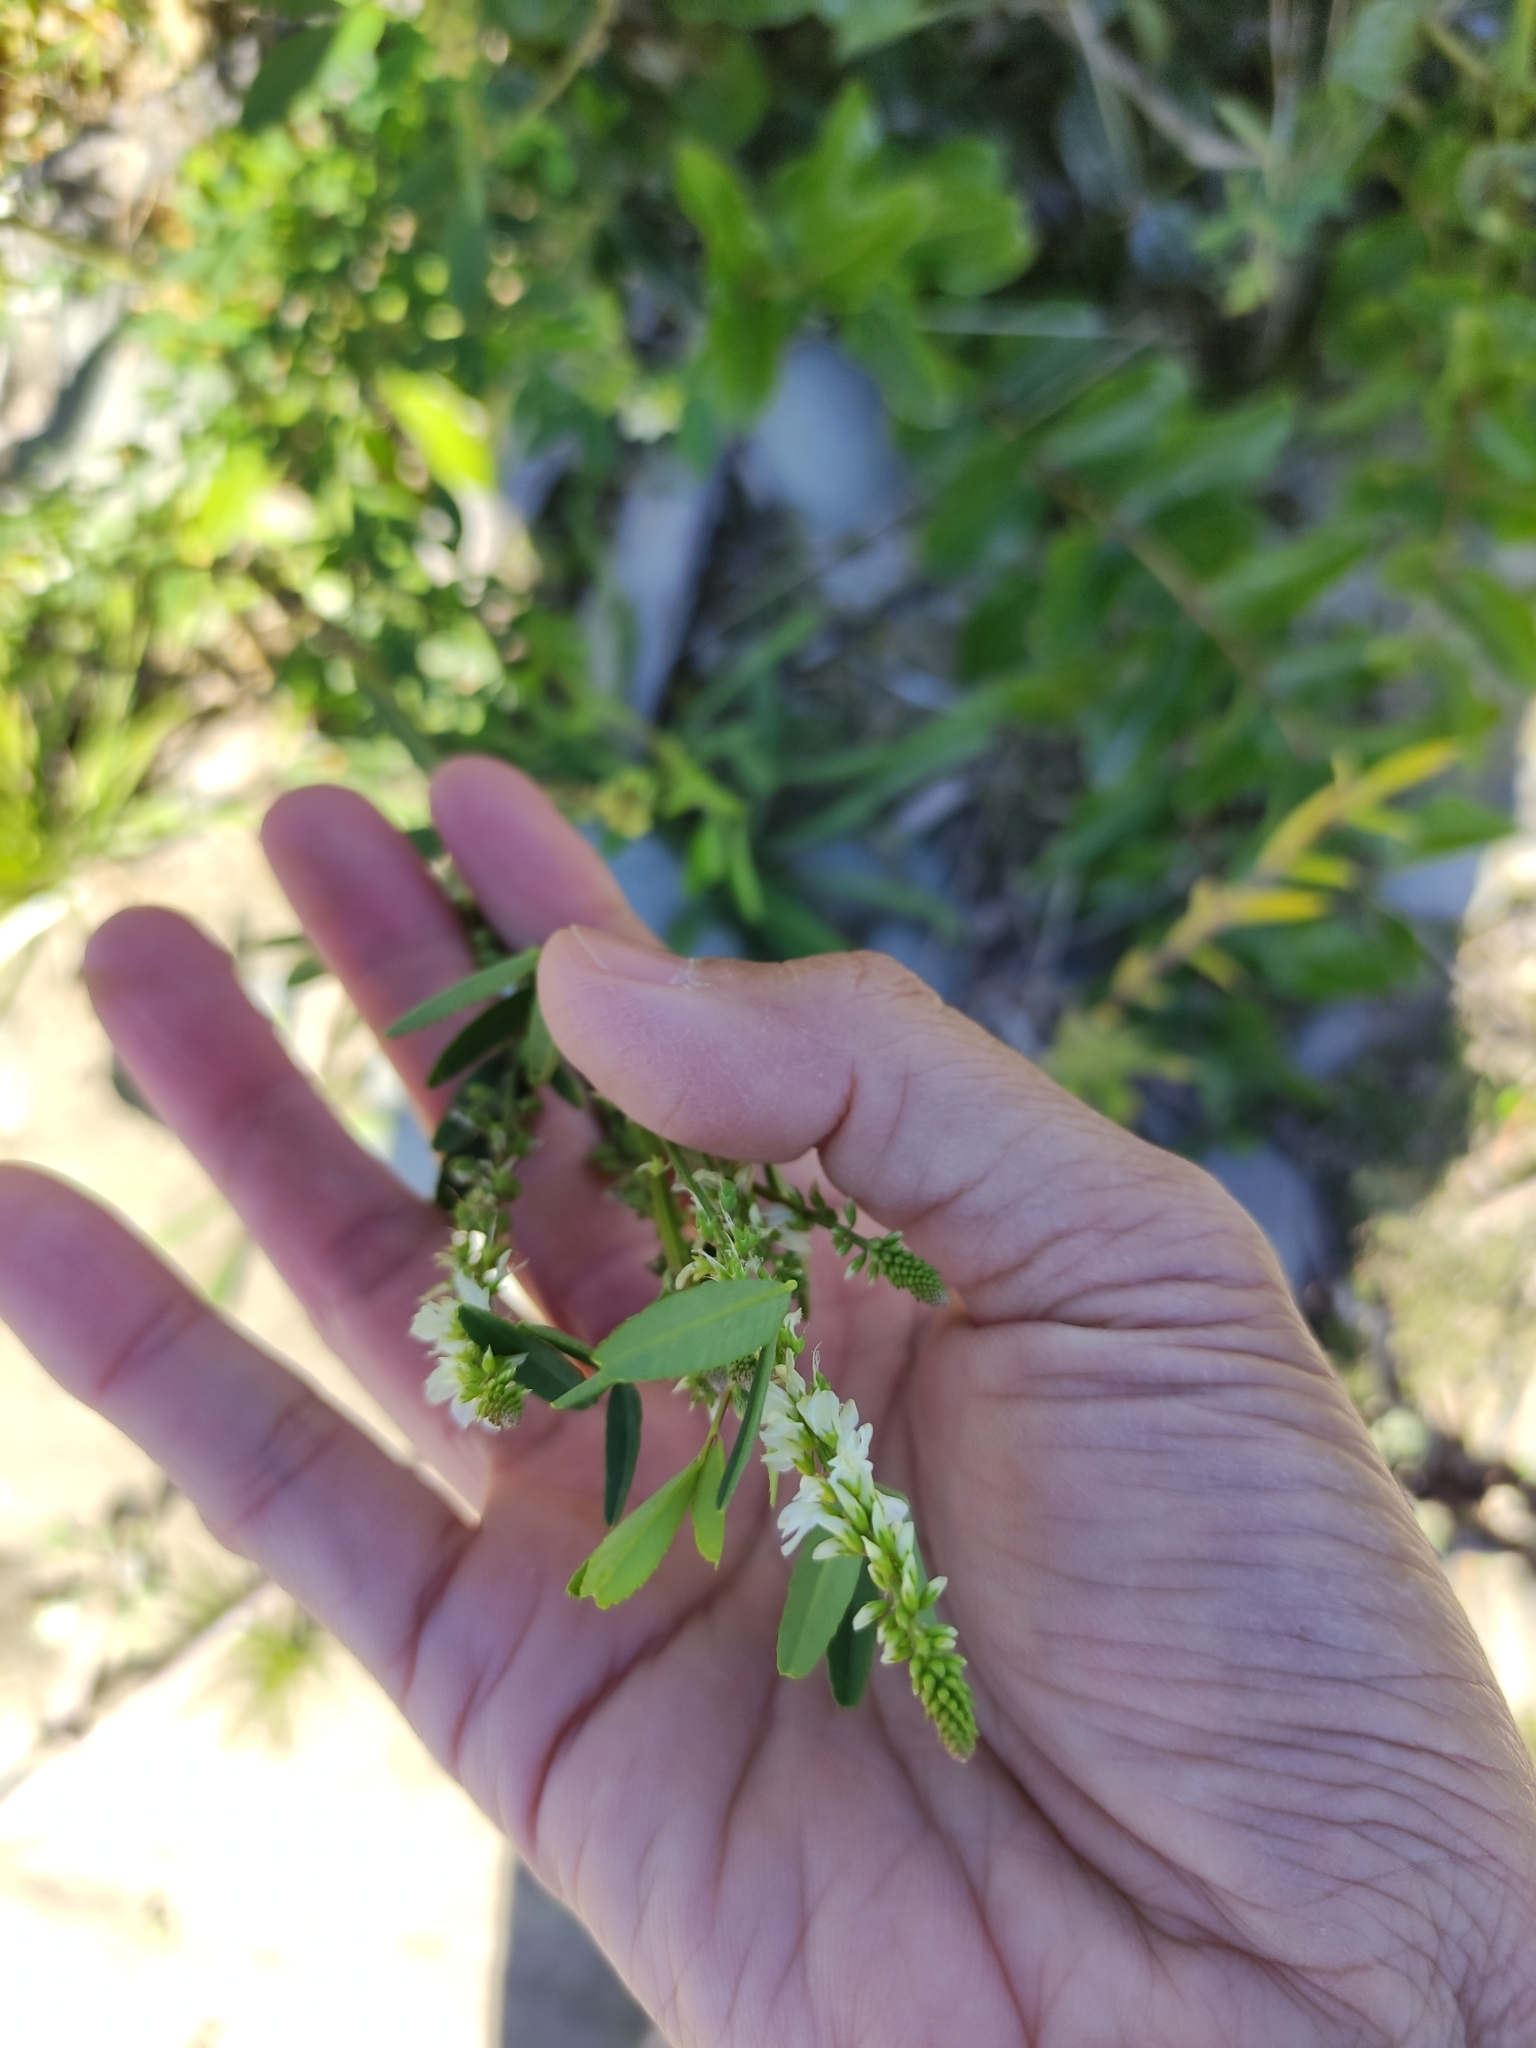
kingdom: Plantae
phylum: Tracheophyta
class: Magnoliopsida
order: Fabales
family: Fabaceae
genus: Melilotus
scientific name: Melilotus albus
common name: White melilot
